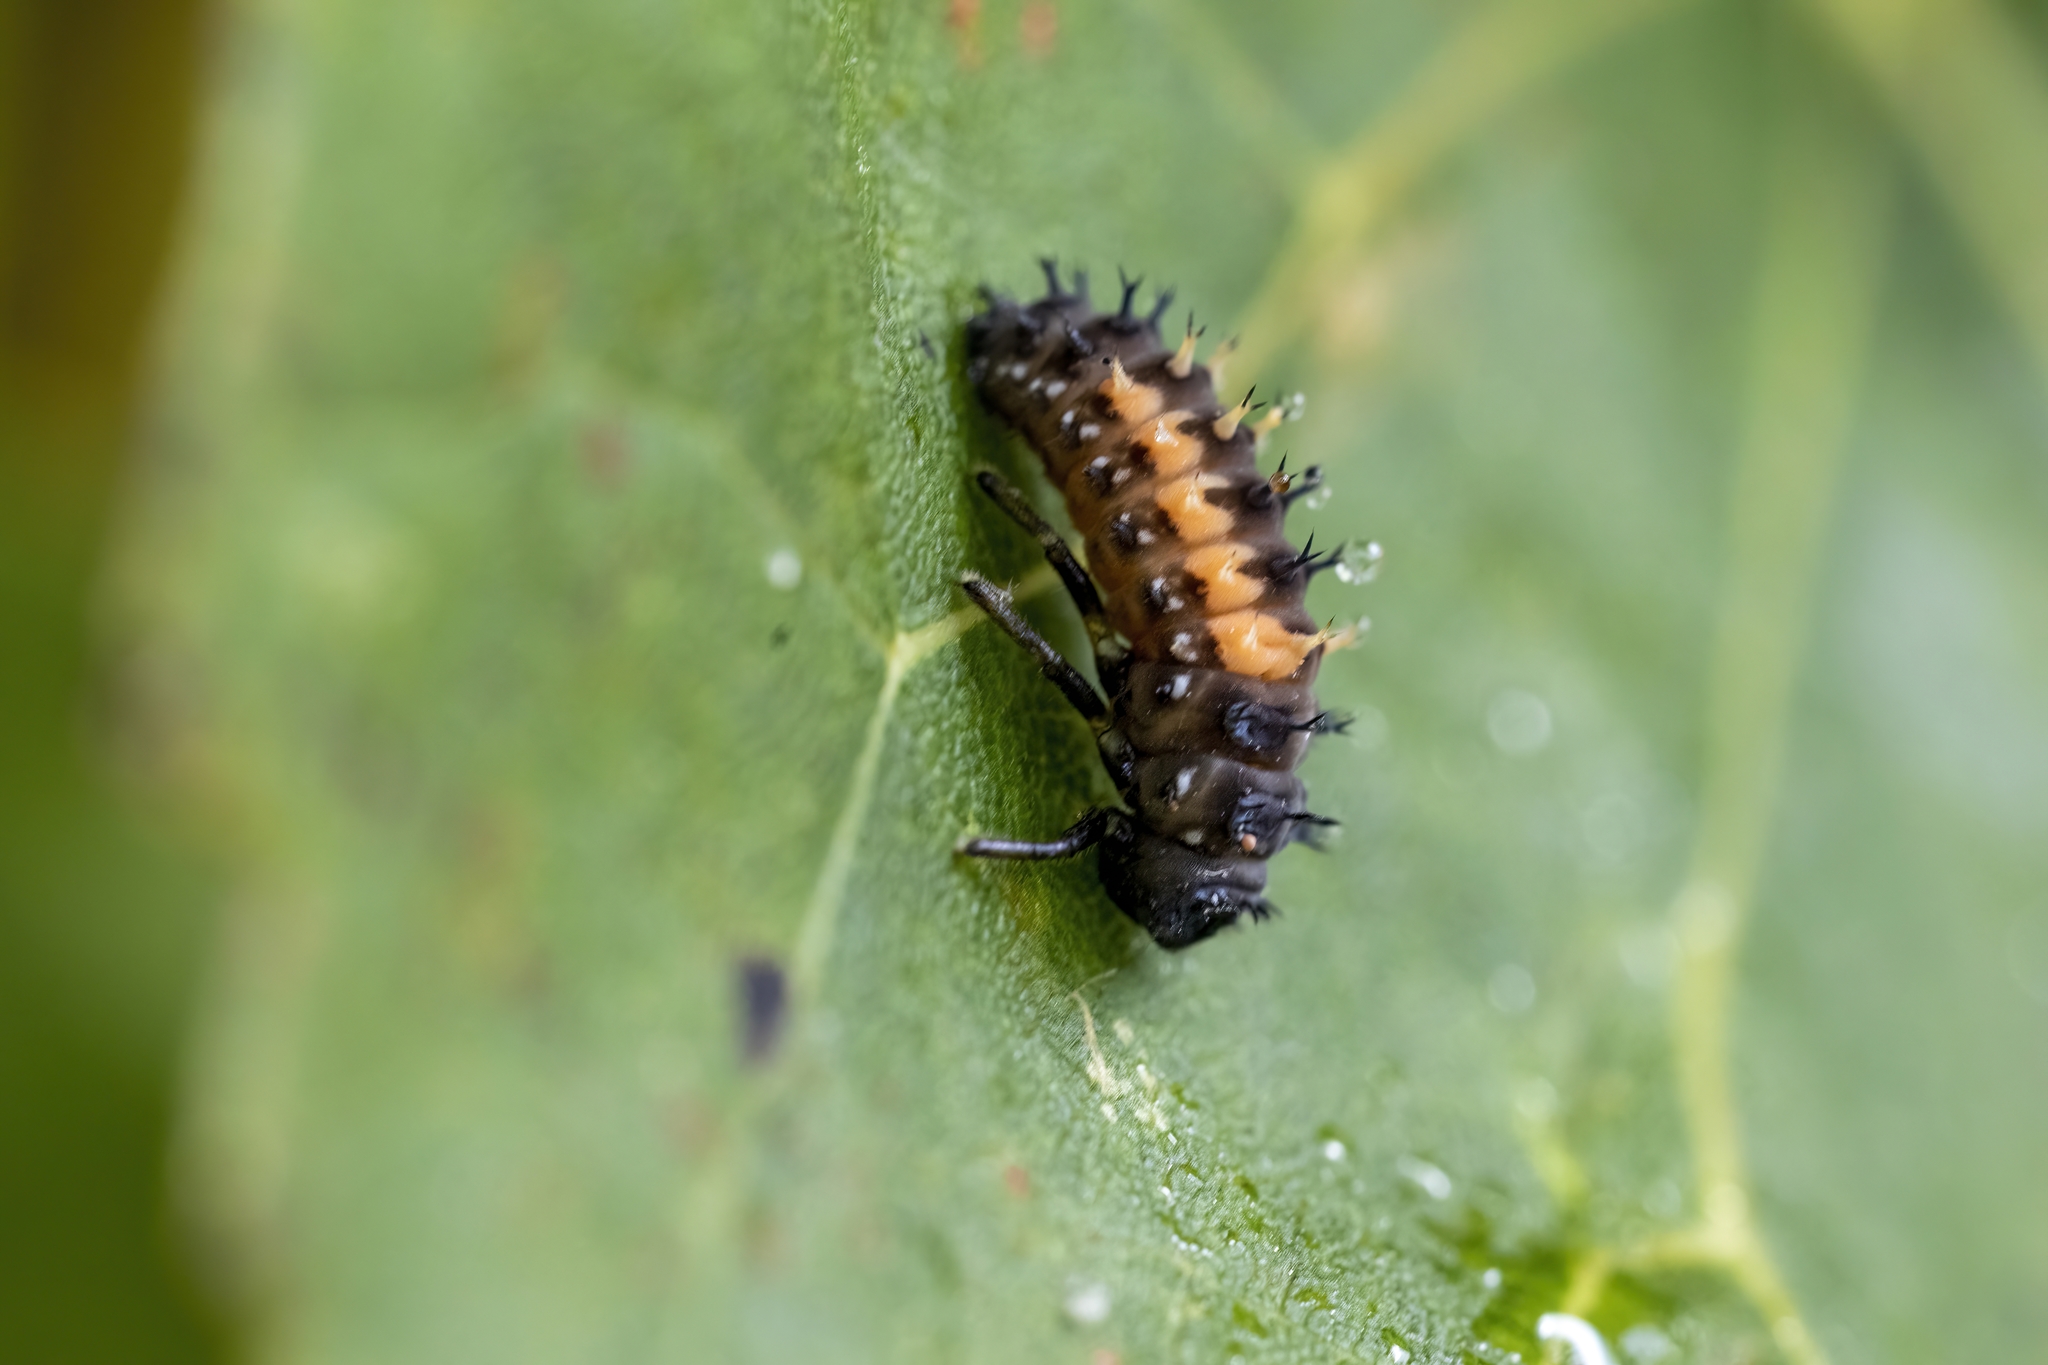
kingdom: Animalia
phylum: Arthropoda
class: Insecta
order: Coleoptera
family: Coccinellidae
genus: Harmonia
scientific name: Harmonia axyridis
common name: Harlequin ladybird
